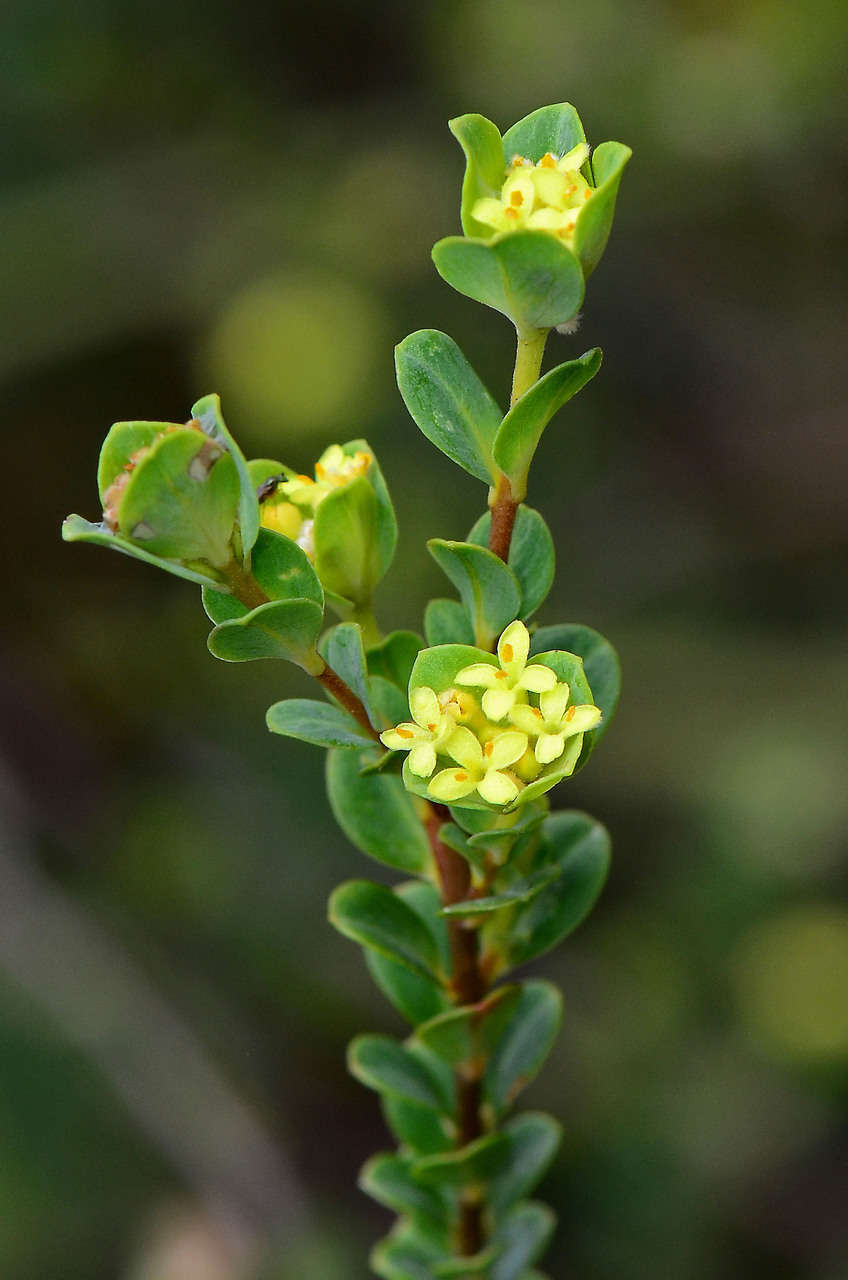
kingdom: Plantae
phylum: Tracheophyta
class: Magnoliopsida
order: Malvales
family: Thymelaeaceae
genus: Pimelea
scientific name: Pimelea flava
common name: Yellow riceflower
